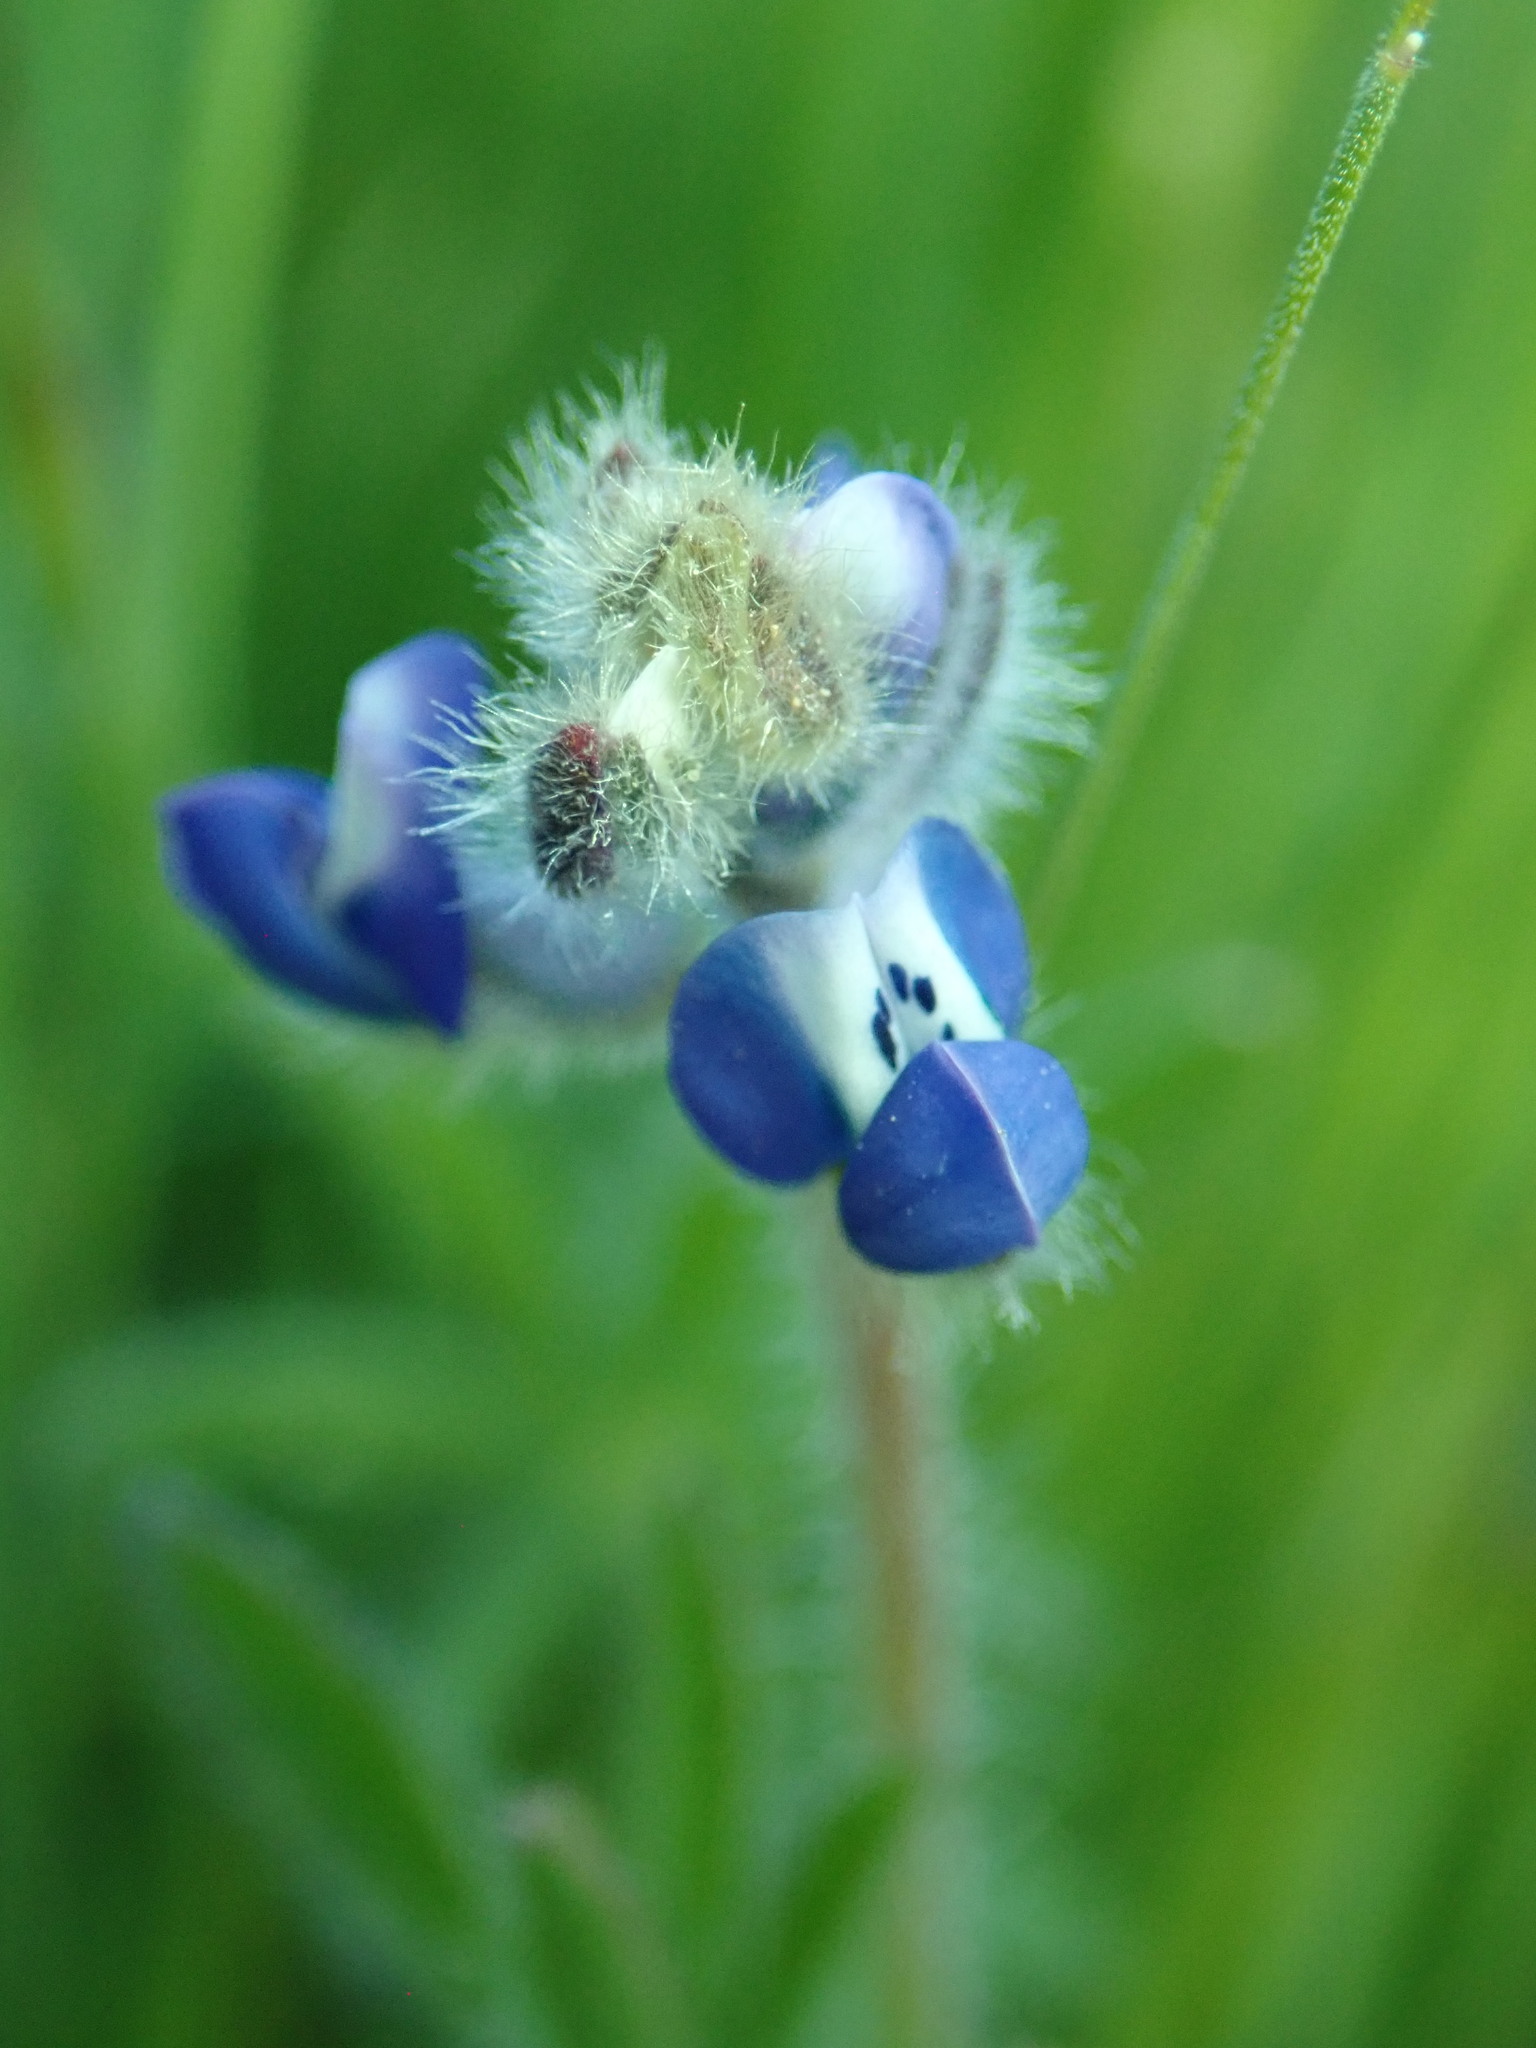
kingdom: Plantae
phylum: Tracheophyta
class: Magnoliopsida
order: Fabales
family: Fabaceae
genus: Lupinus
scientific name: Lupinus bicolor
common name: Miniature lupine
